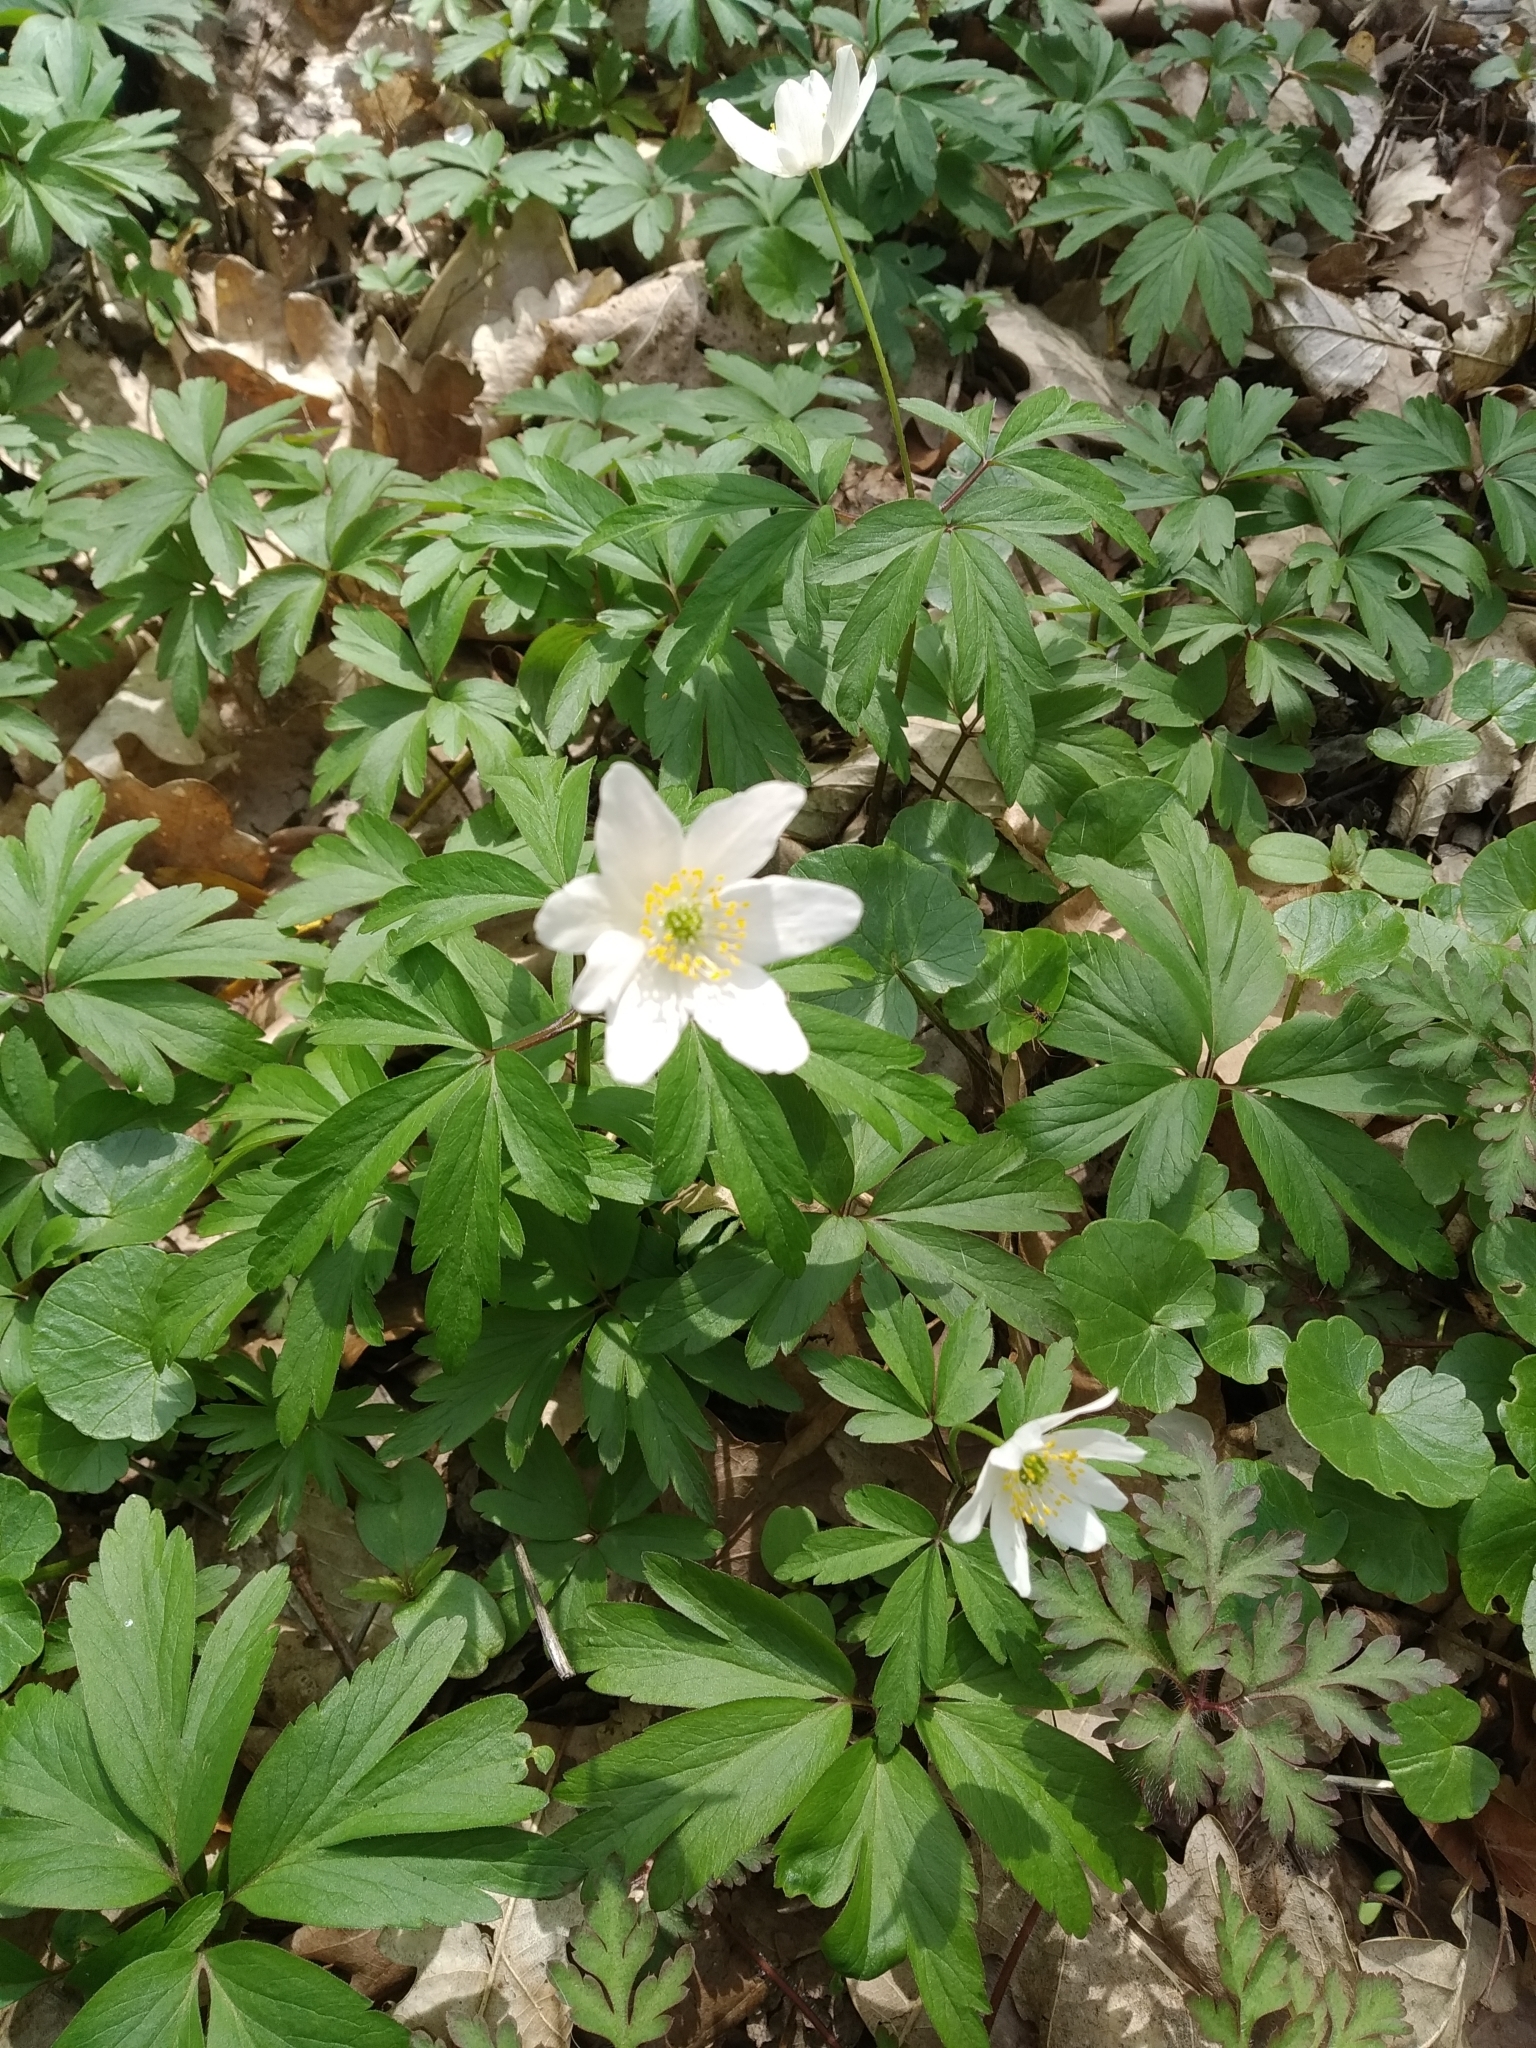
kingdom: Plantae
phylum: Tracheophyta
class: Magnoliopsida
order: Ranunculales
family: Ranunculaceae
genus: Anemone
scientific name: Anemone nemorosa
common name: Wood anemone
